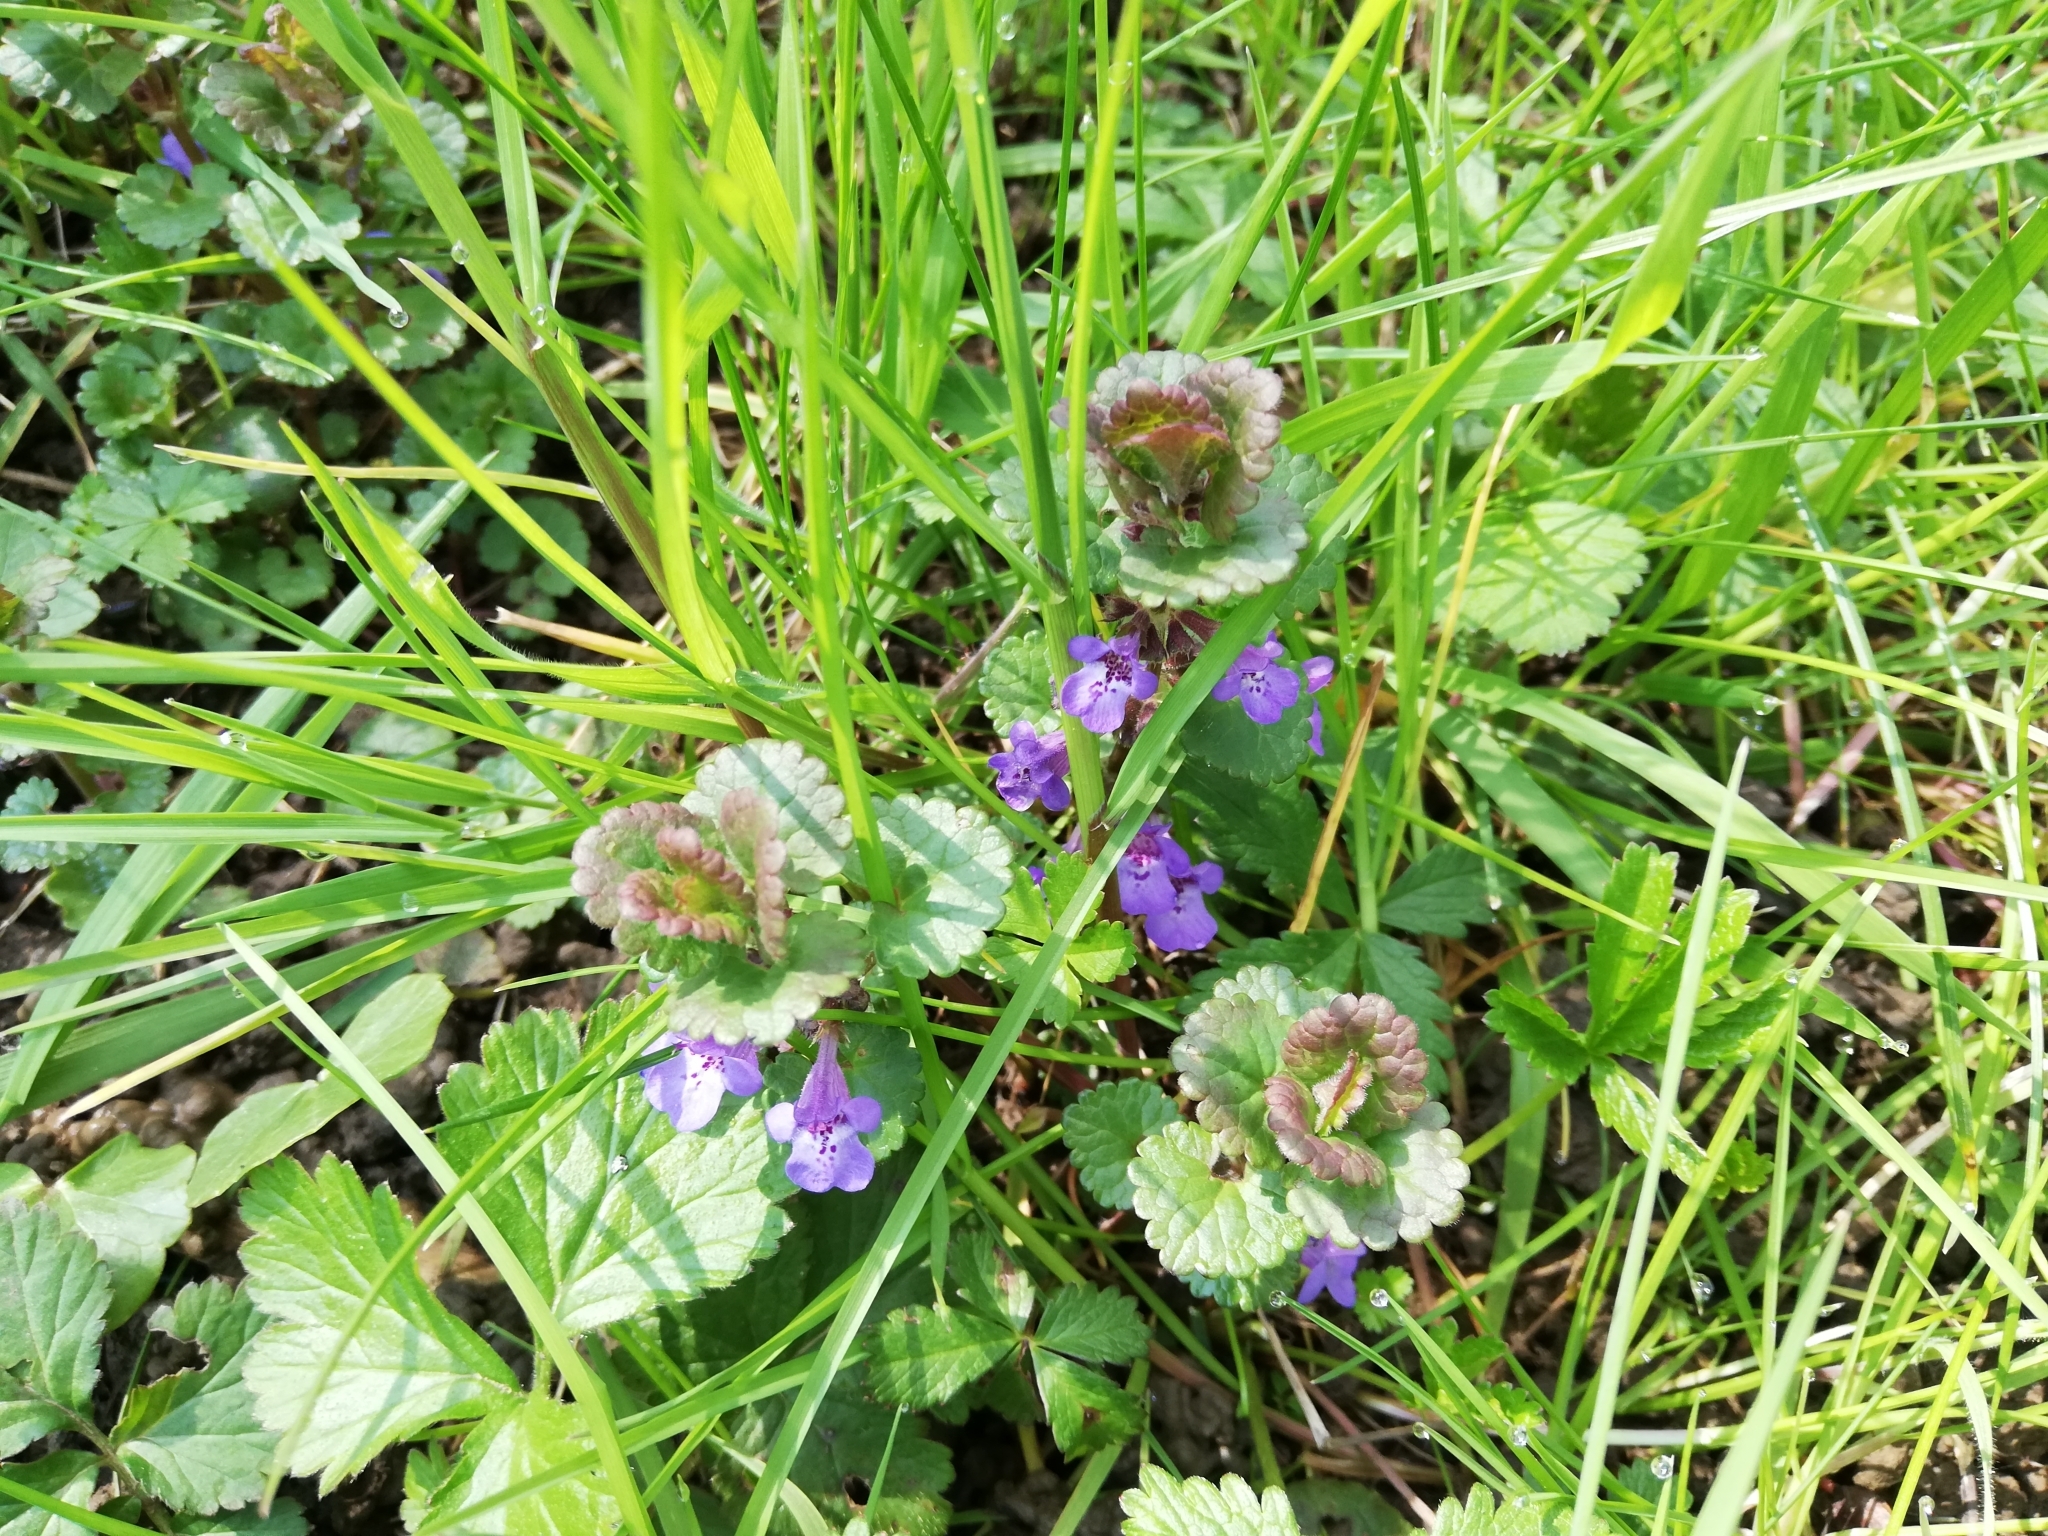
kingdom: Plantae
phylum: Tracheophyta
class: Magnoliopsida
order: Lamiales
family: Lamiaceae
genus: Glechoma
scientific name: Glechoma hederacea
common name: Ground ivy
